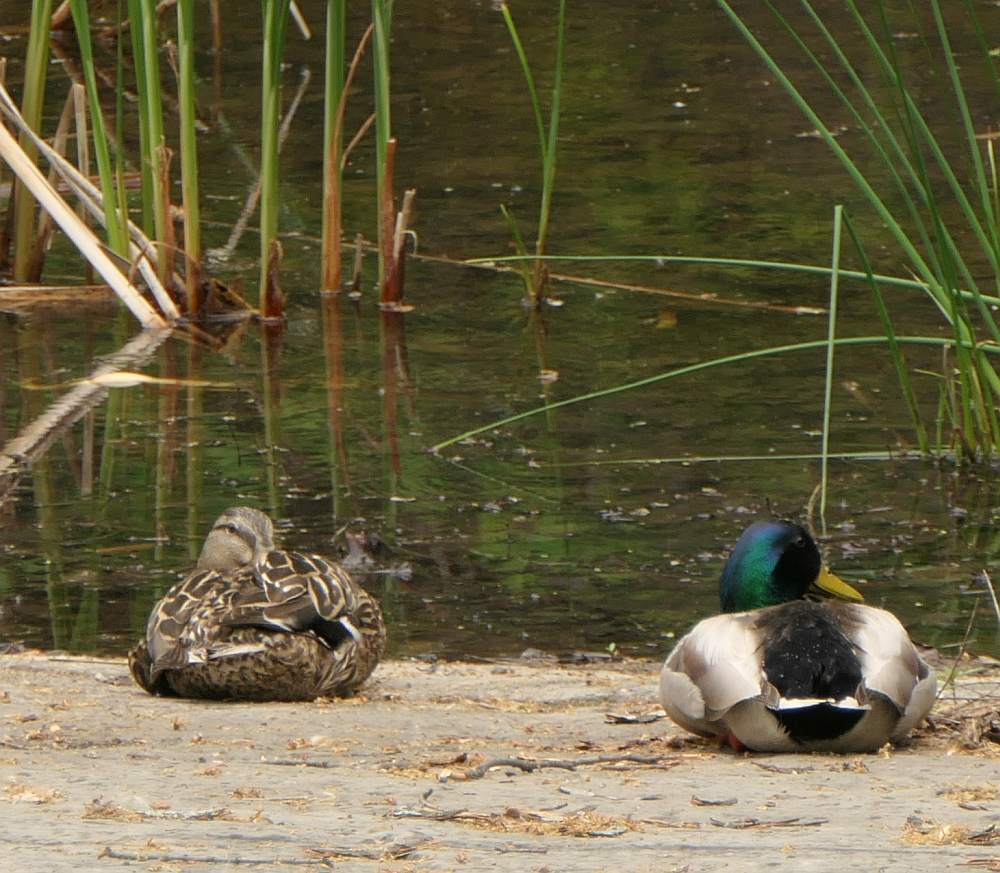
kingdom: Animalia
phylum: Chordata
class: Aves
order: Anseriformes
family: Anatidae
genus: Anas
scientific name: Anas platyrhynchos
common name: Mallard
